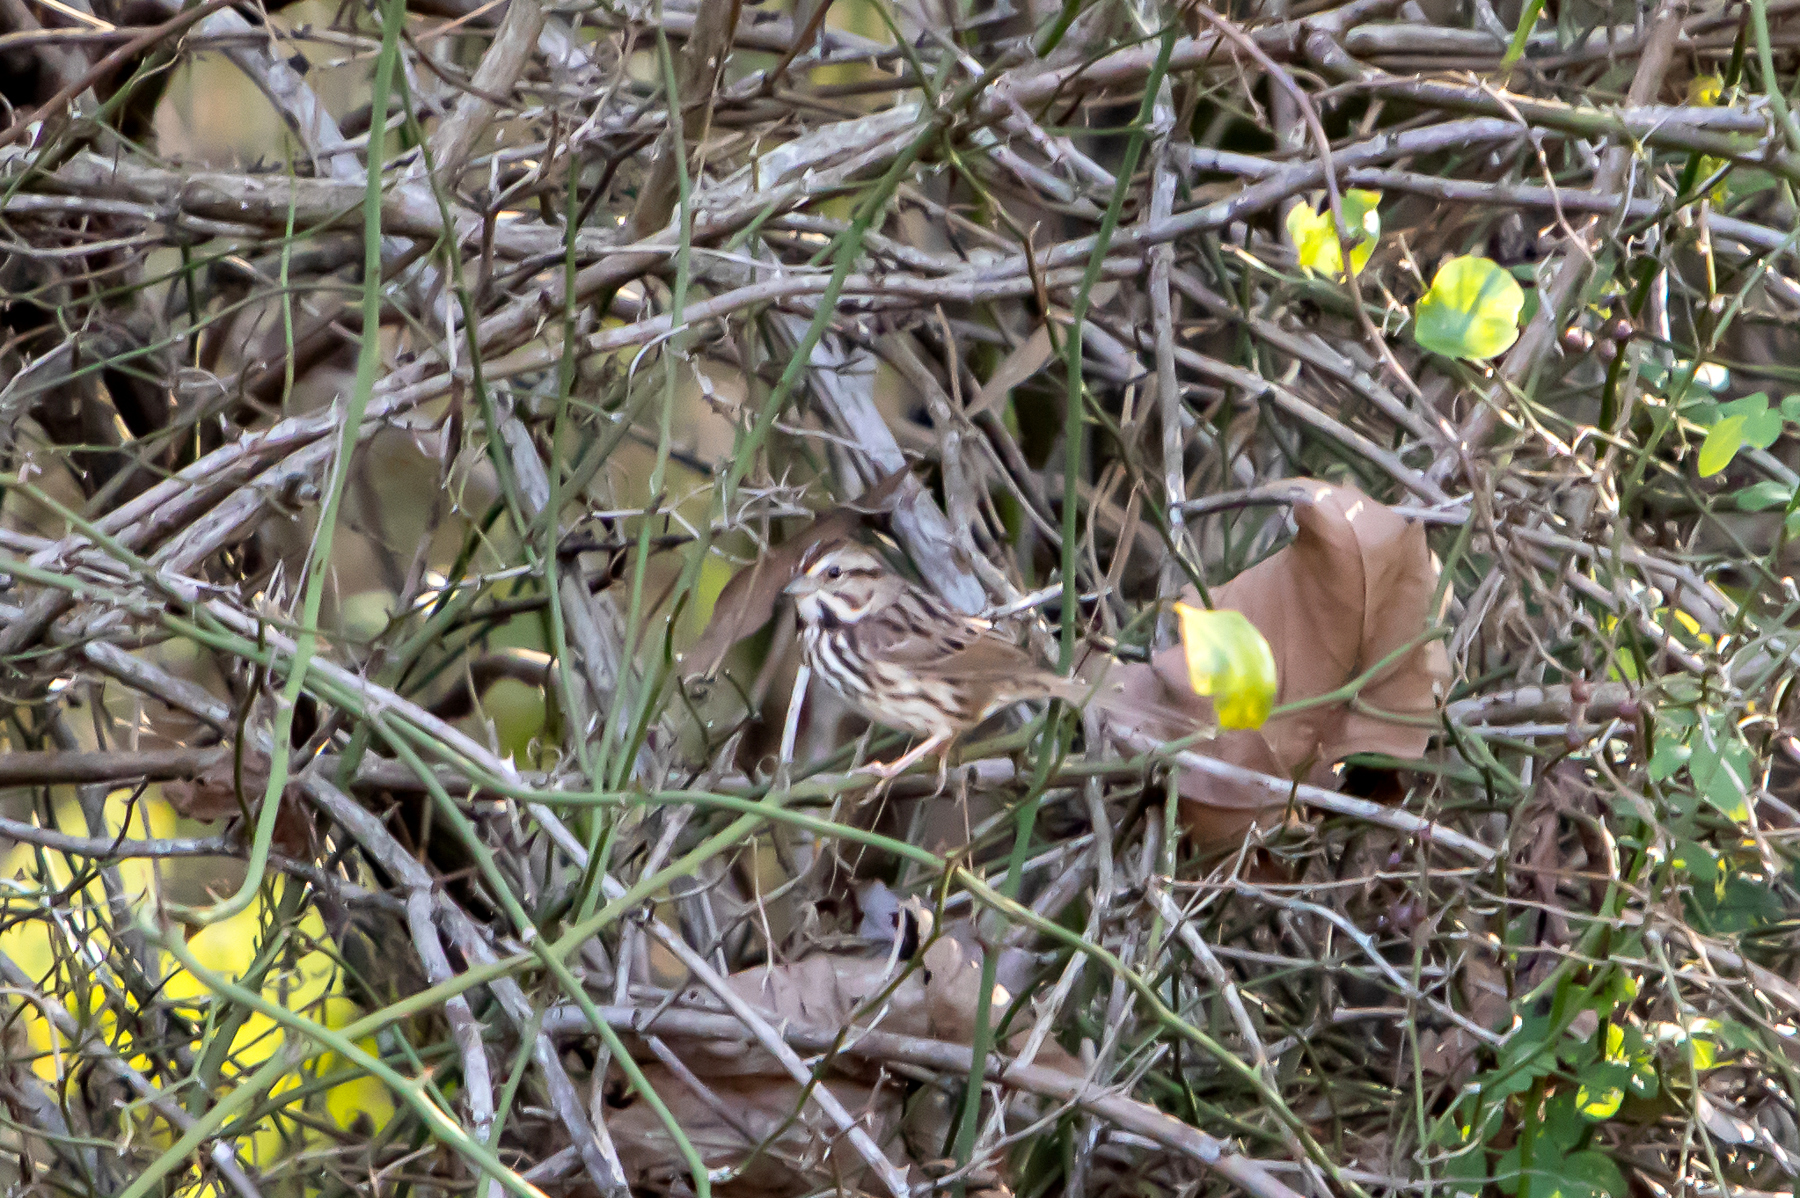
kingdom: Animalia
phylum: Chordata
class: Aves
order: Passeriformes
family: Passerellidae
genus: Melospiza
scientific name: Melospiza melodia
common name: Song sparrow
